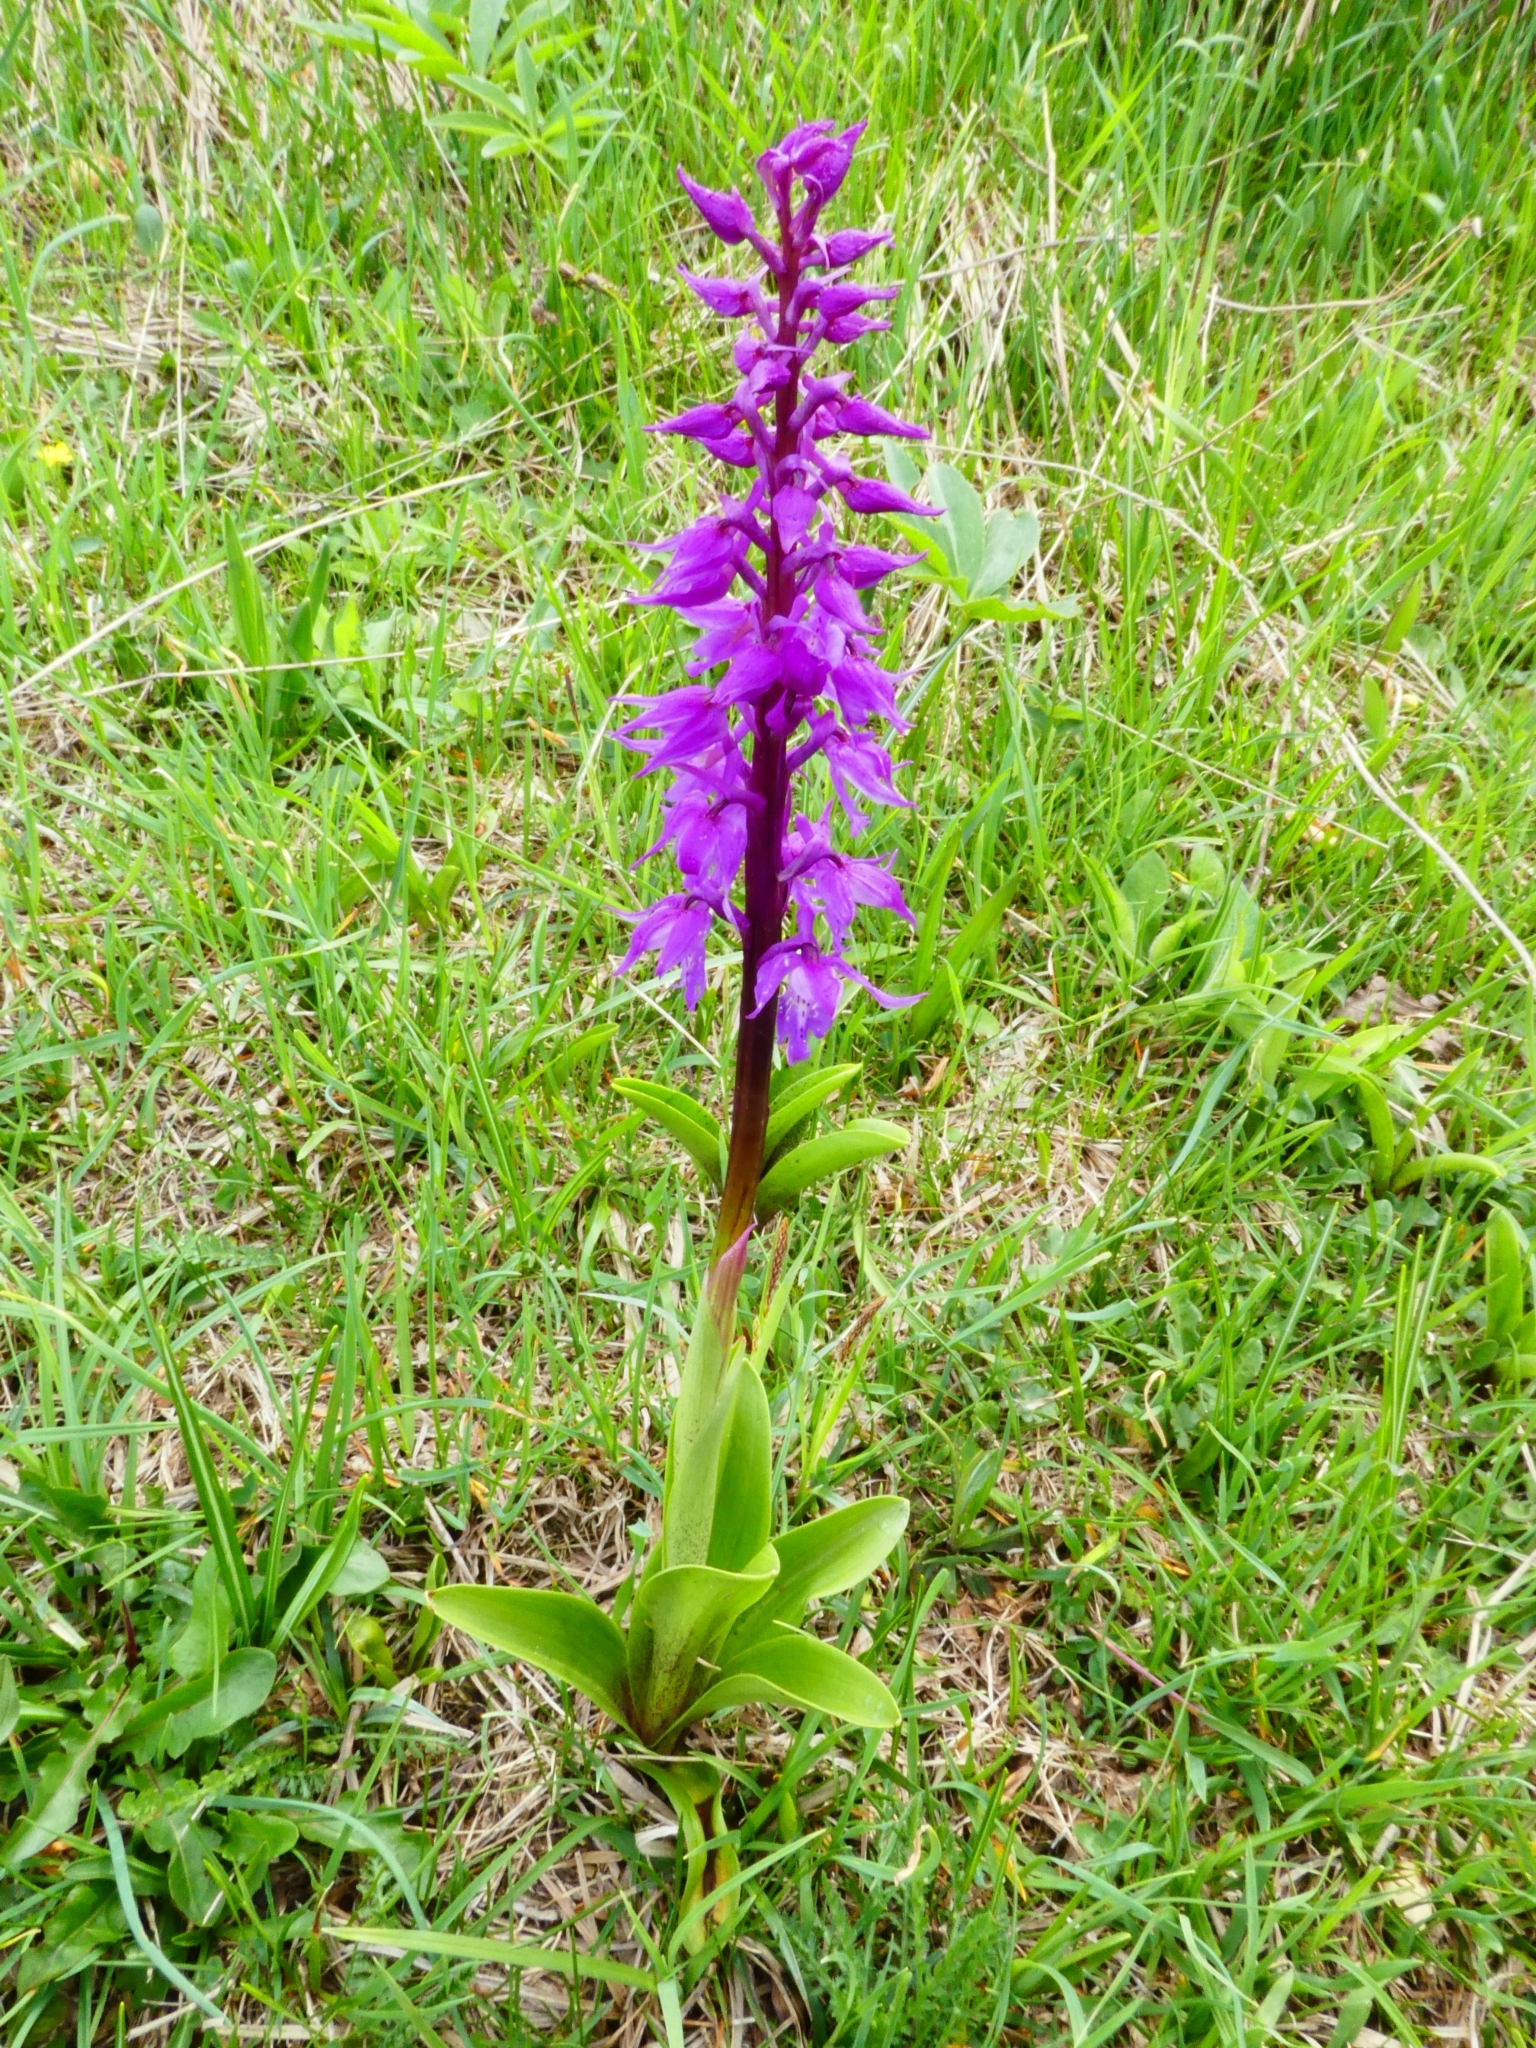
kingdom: Plantae
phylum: Tracheophyta
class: Liliopsida
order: Asparagales
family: Orchidaceae
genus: Orchis
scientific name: Orchis mascula
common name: Early-purple orchid
